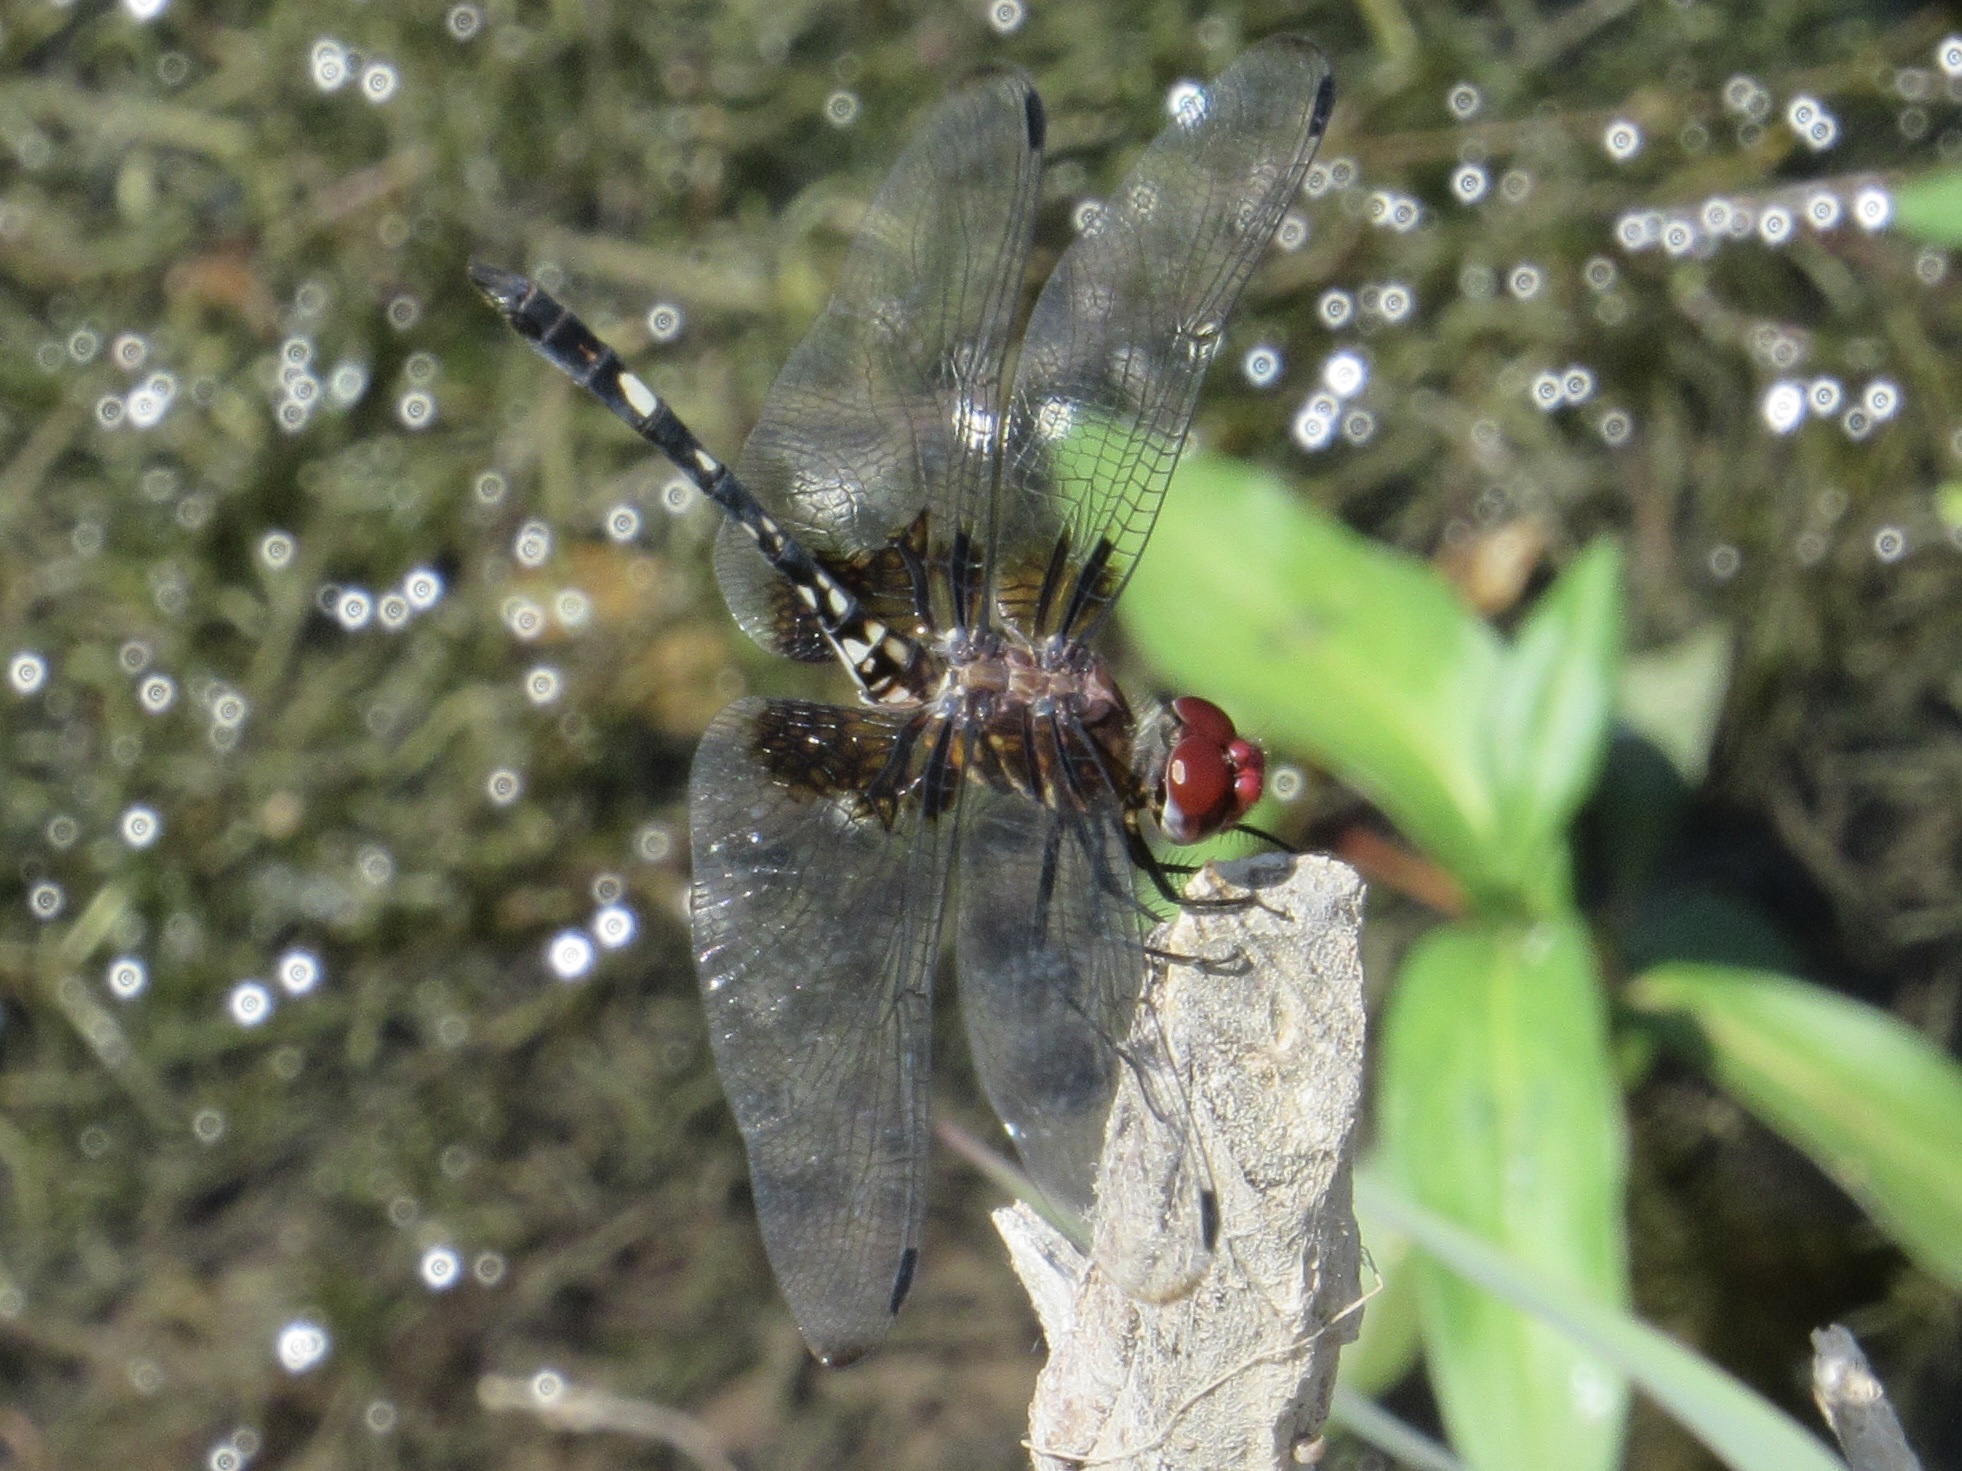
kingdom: Animalia
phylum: Arthropoda
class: Insecta
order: Odonata
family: Libellulidae
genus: Dythemis
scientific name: Dythemis fugax
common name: Checkered setwing
